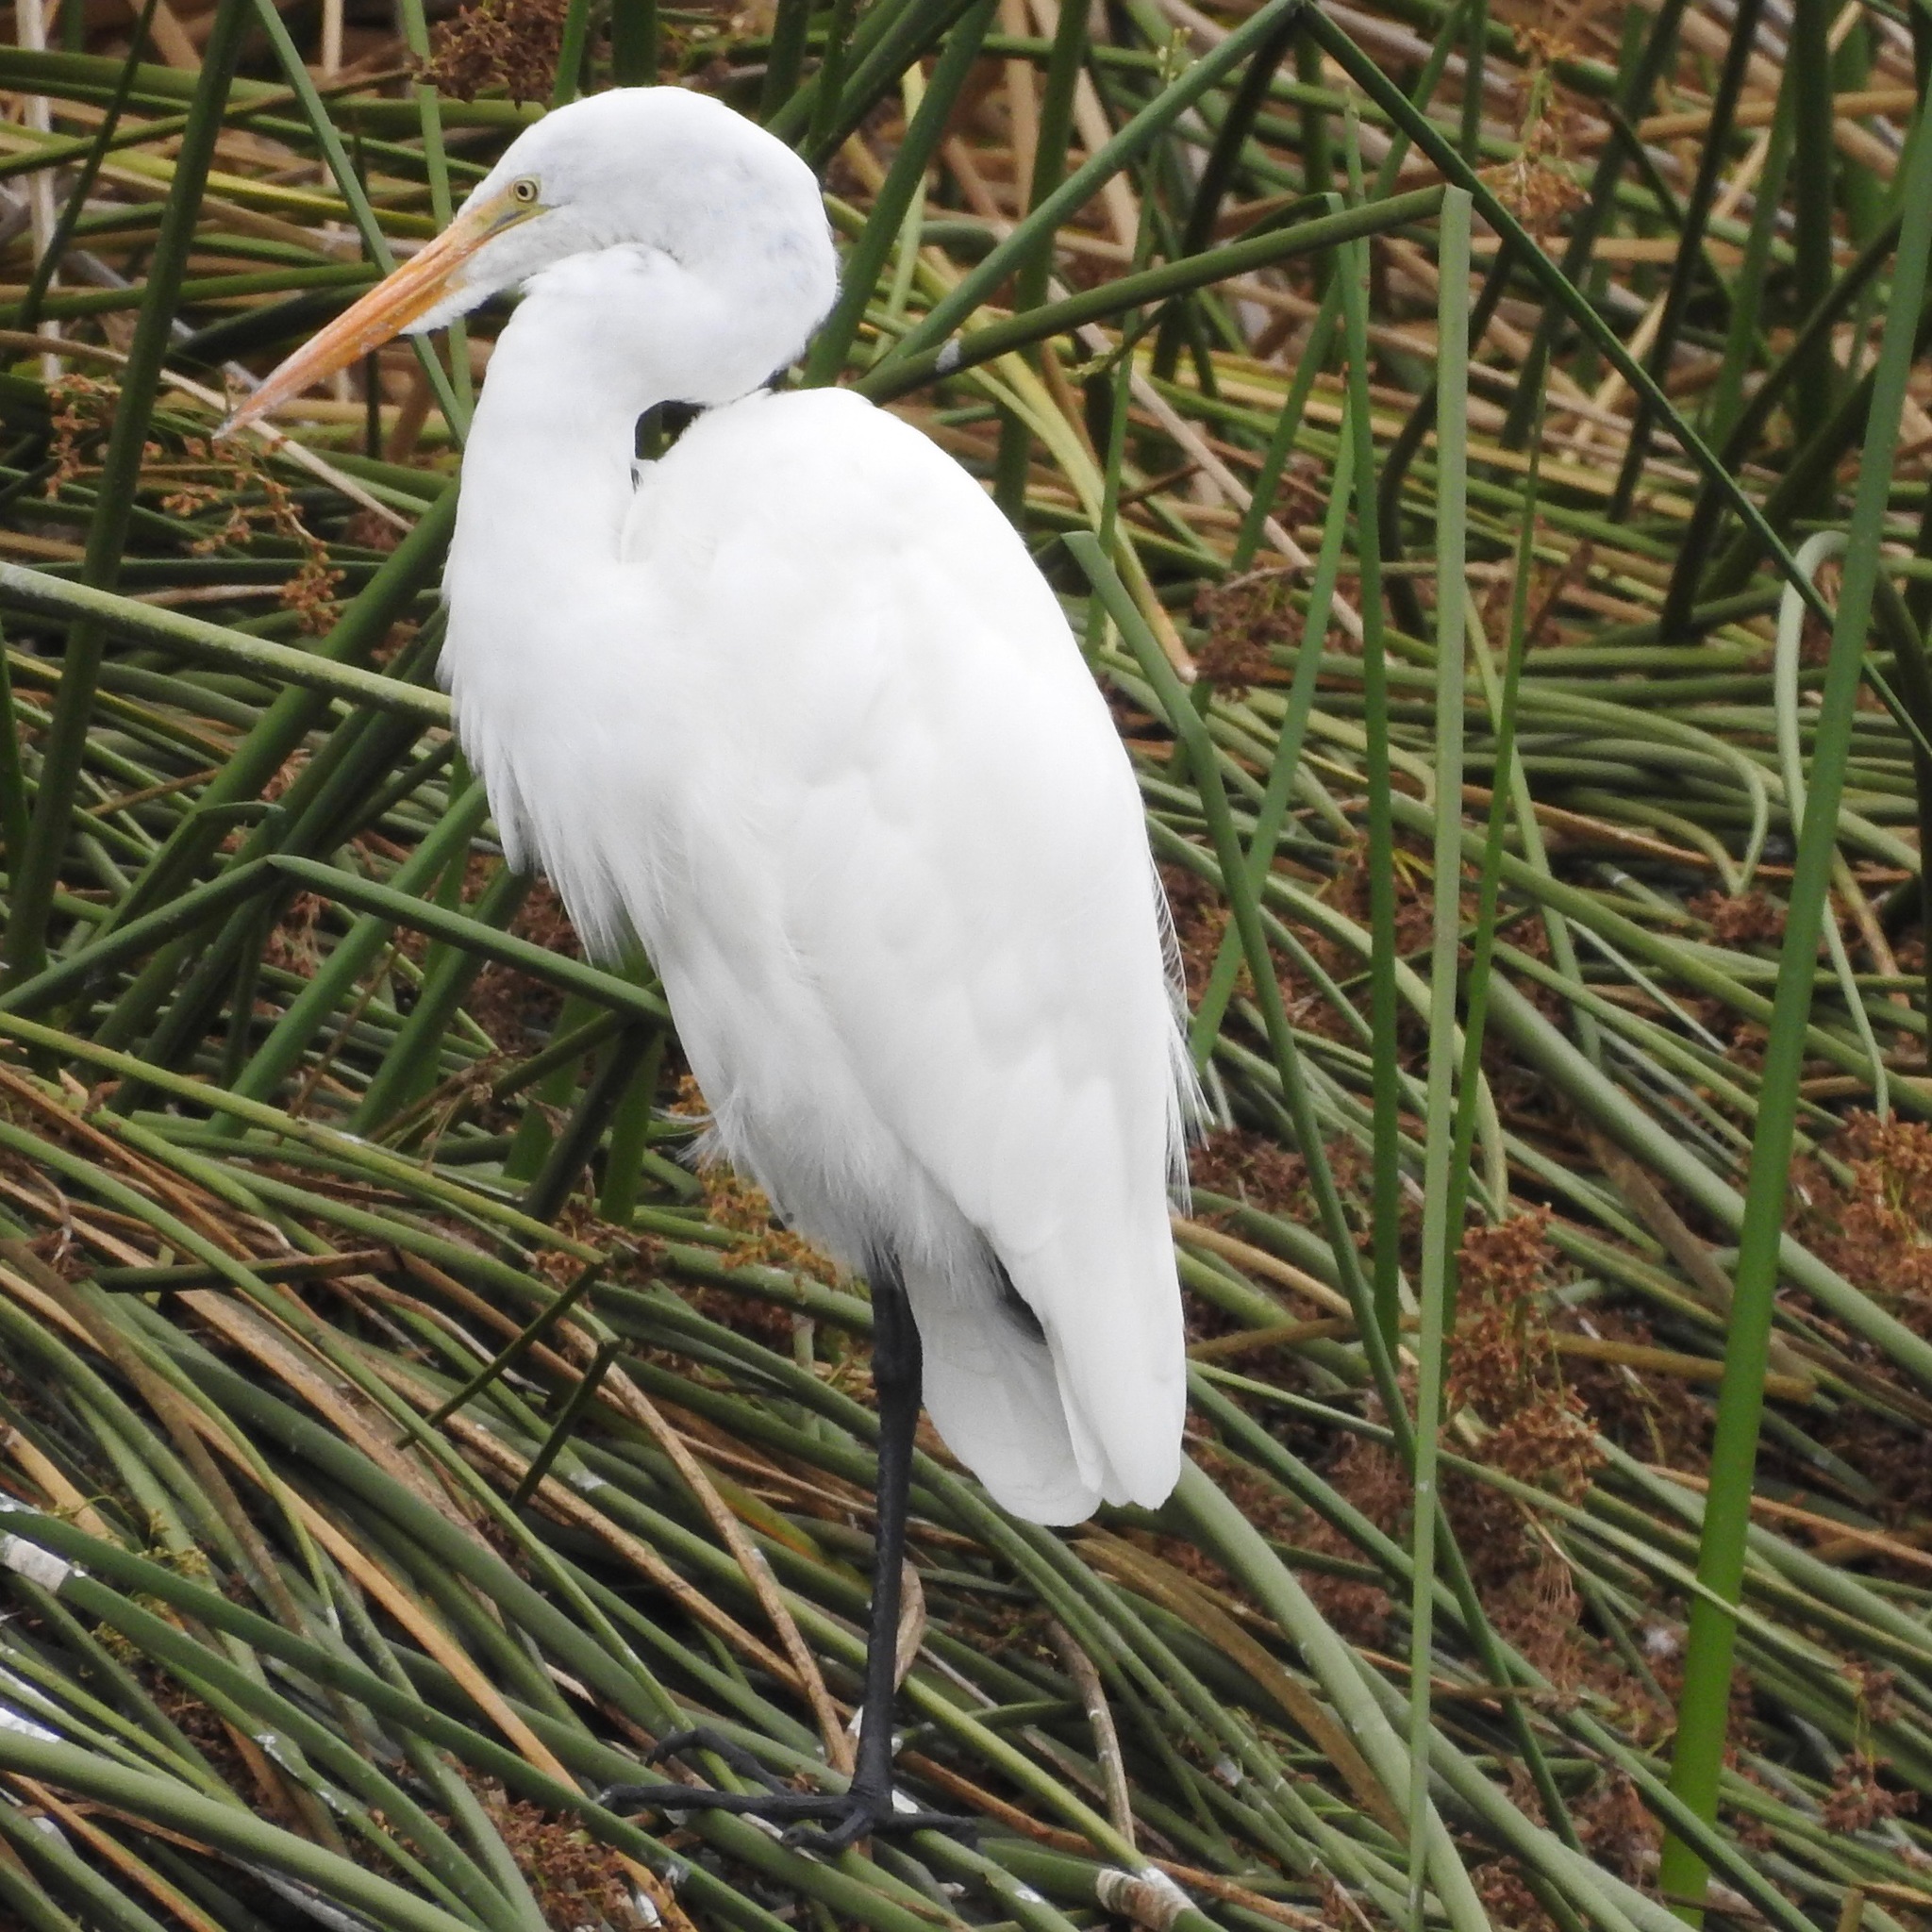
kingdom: Animalia
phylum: Chordata
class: Aves
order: Pelecaniformes
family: Ardeidae
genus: Ardea
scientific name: Ardea alba
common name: Great egret
